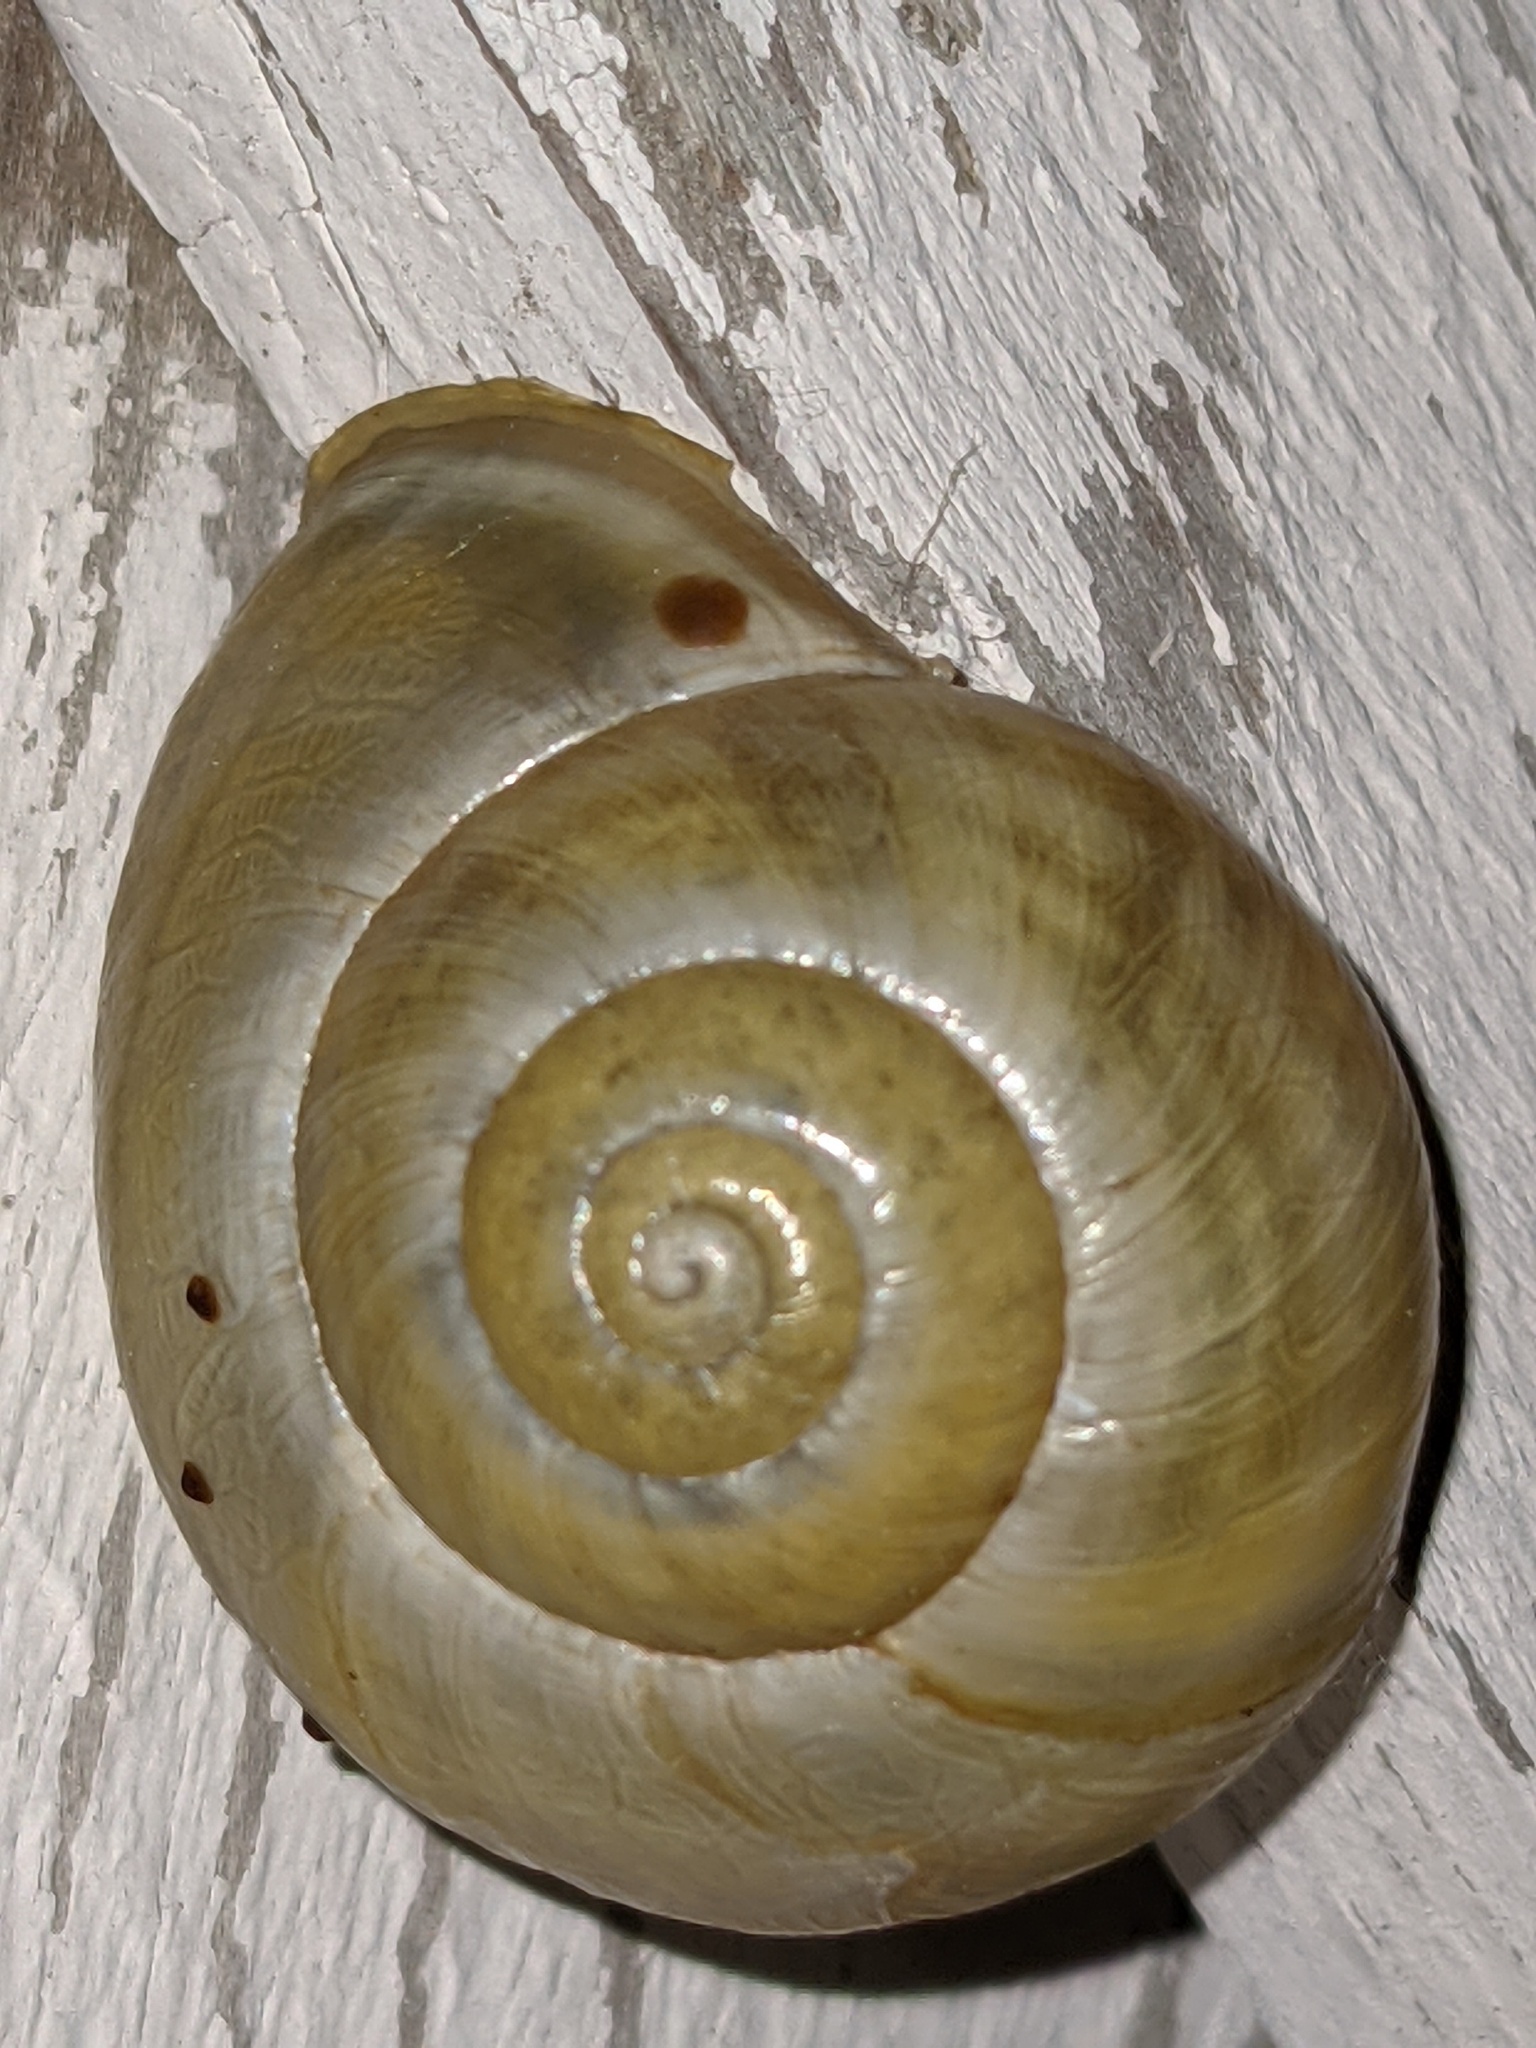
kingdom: Animalia
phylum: Mollusca
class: Gastropoda
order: Stylommatophora
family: Helicidae
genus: Cepaea
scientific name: Cepaea hortensis
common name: White-lip gardensnail
